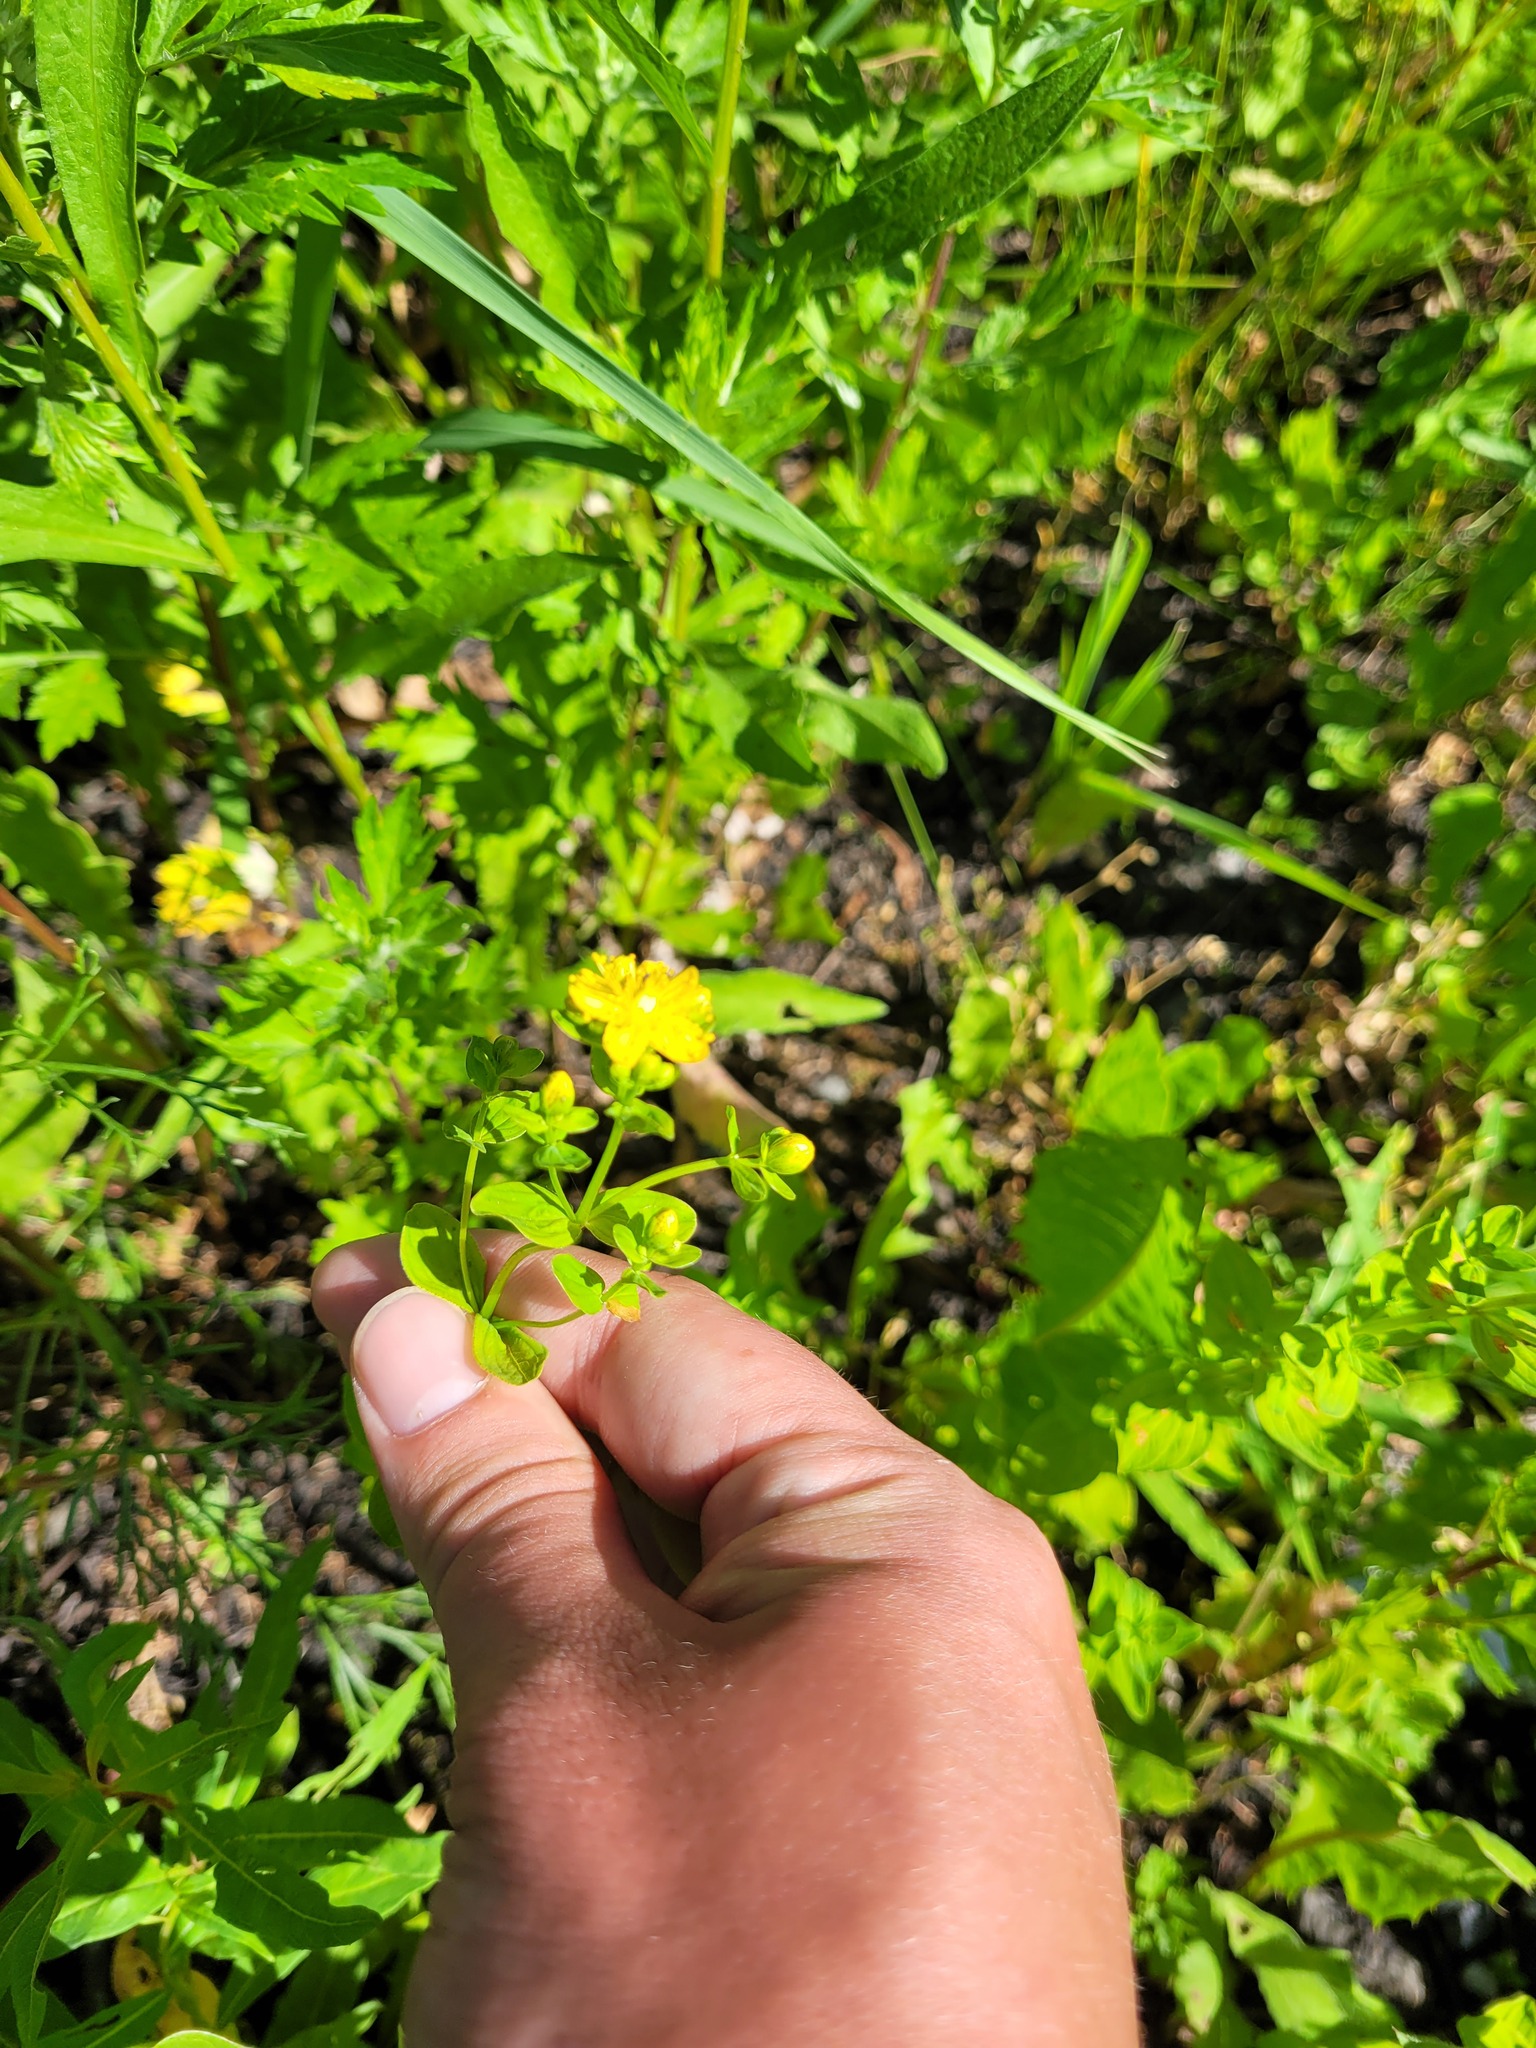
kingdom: Plantae
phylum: Tracheophyta
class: Magnoliopsida
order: Malpighiales
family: Hypericaceae
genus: Hypericum
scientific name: Hypericum maculatum
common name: Imperforate st. john's-wort
